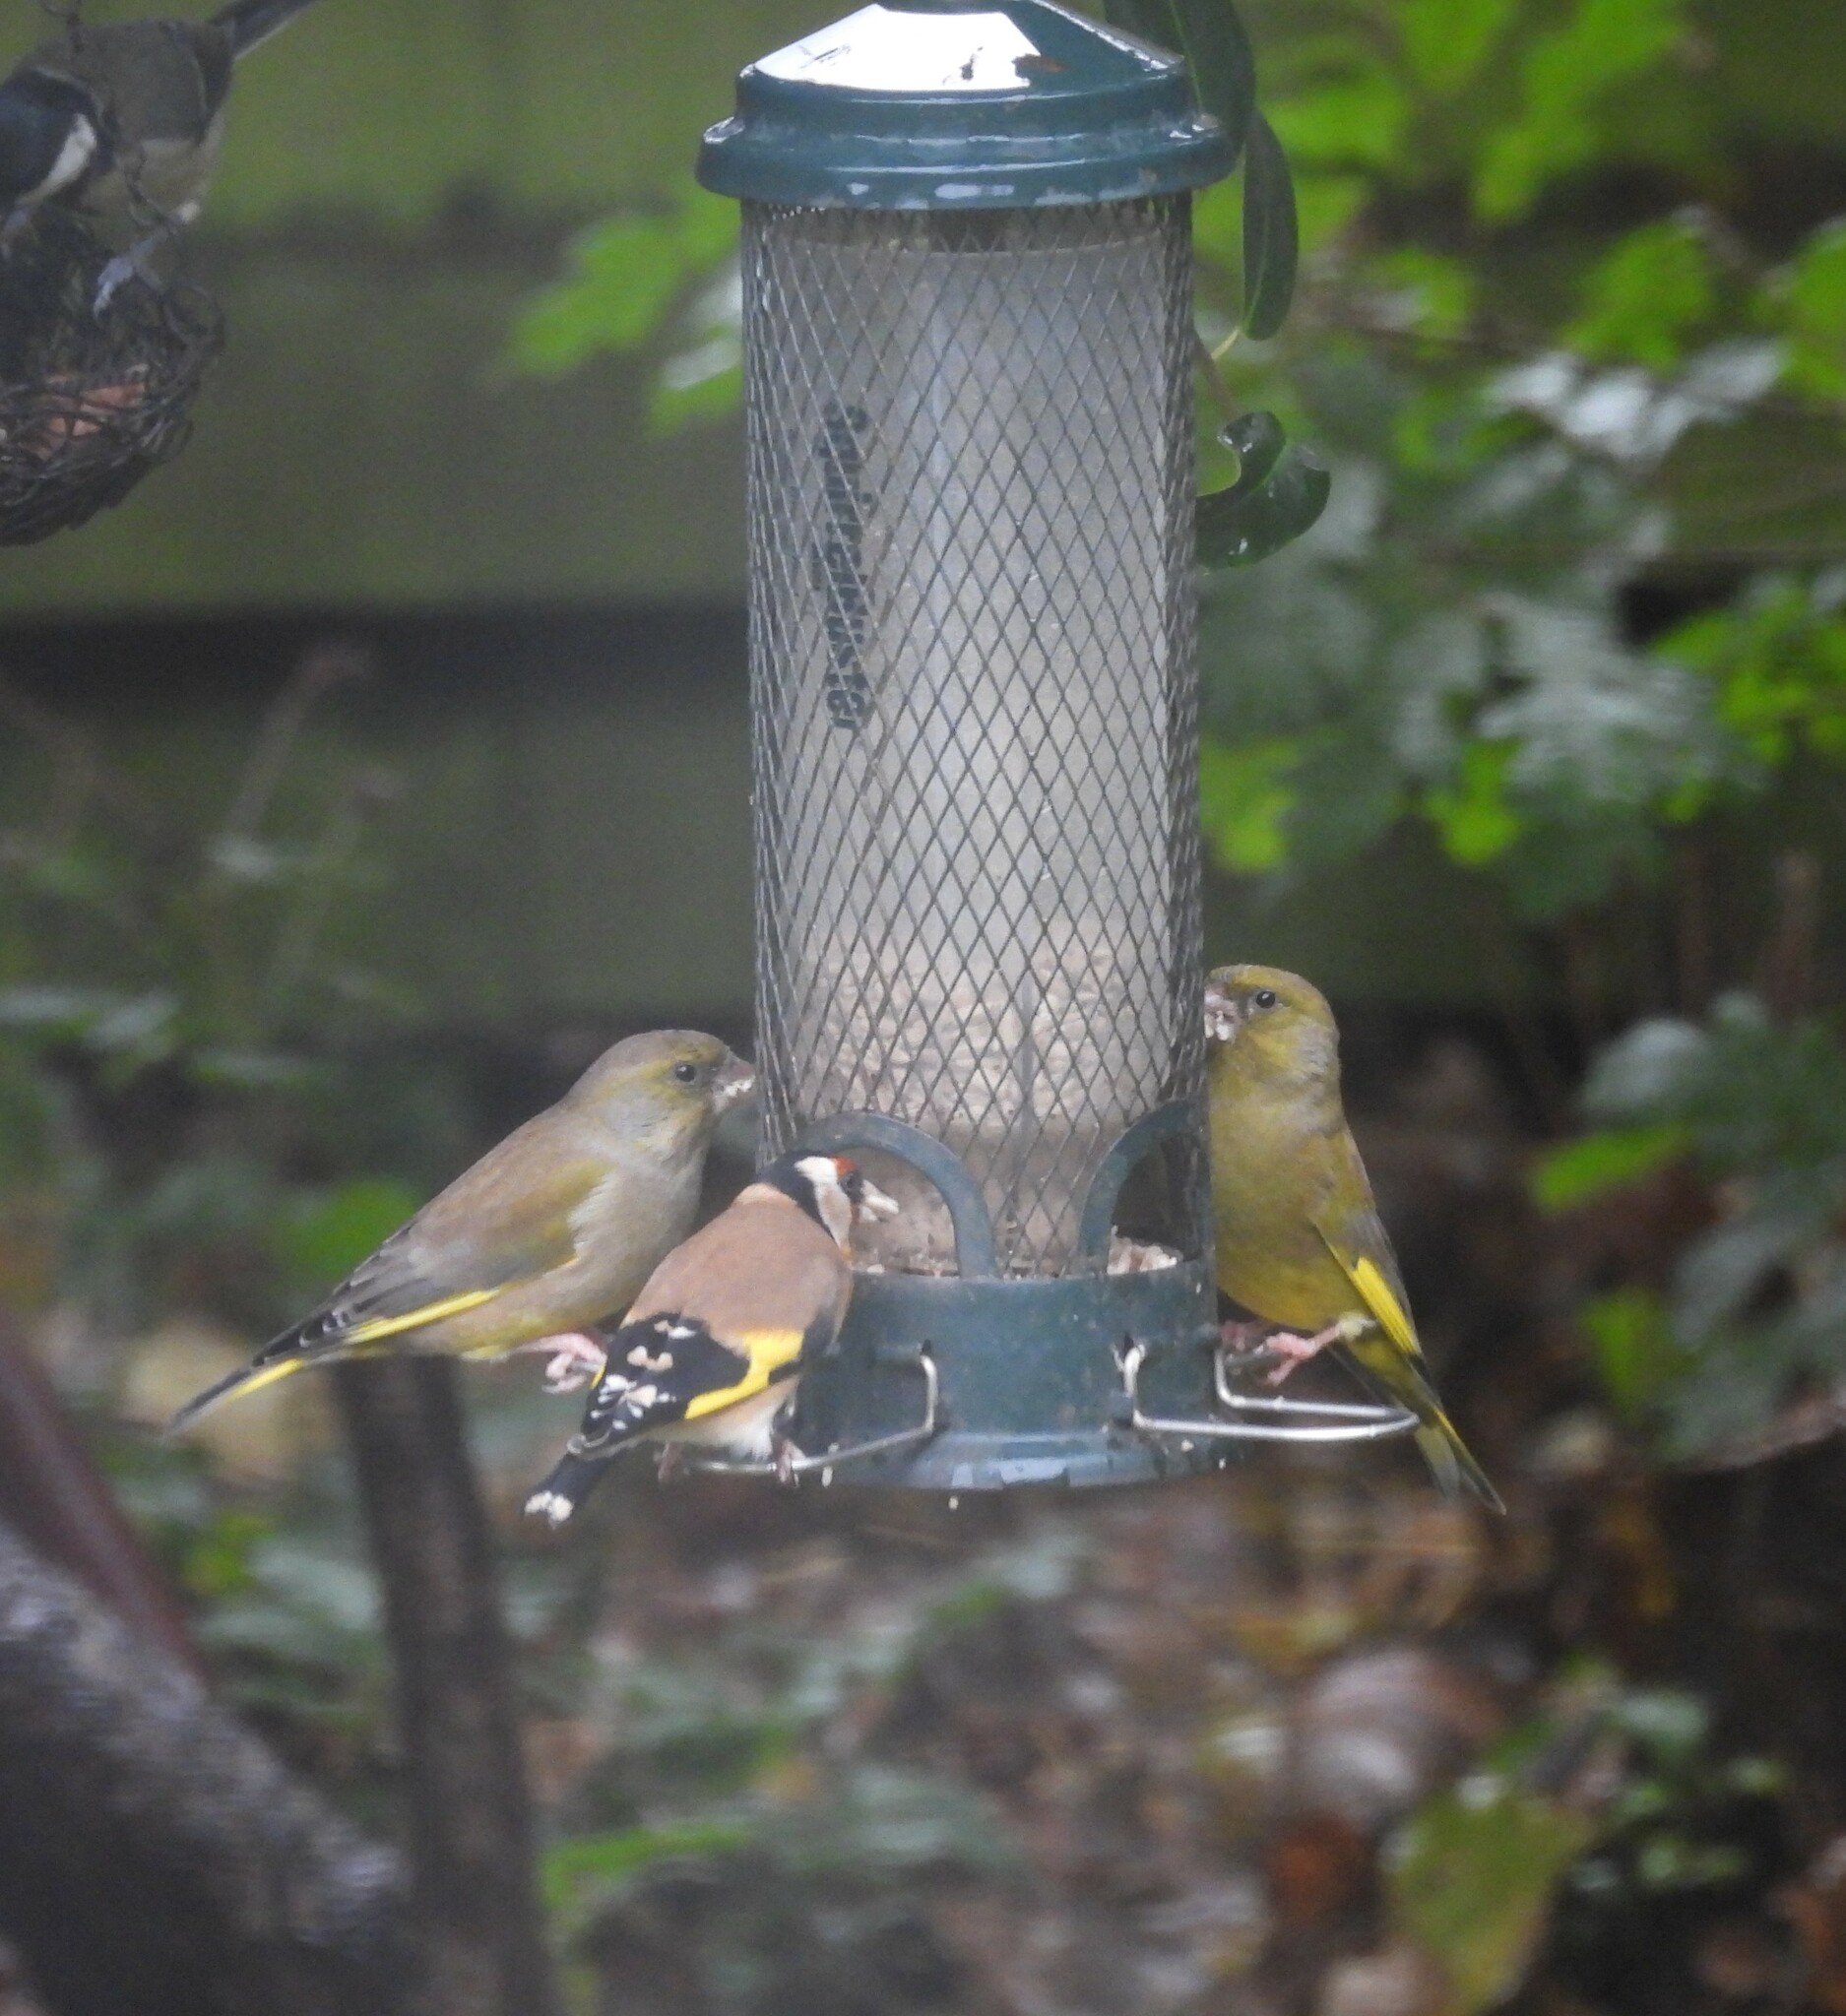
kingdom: Plantae
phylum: Tracheophyta
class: Liliopsida
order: Poales
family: Poaceae
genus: Chloris
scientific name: Chloris chloris
